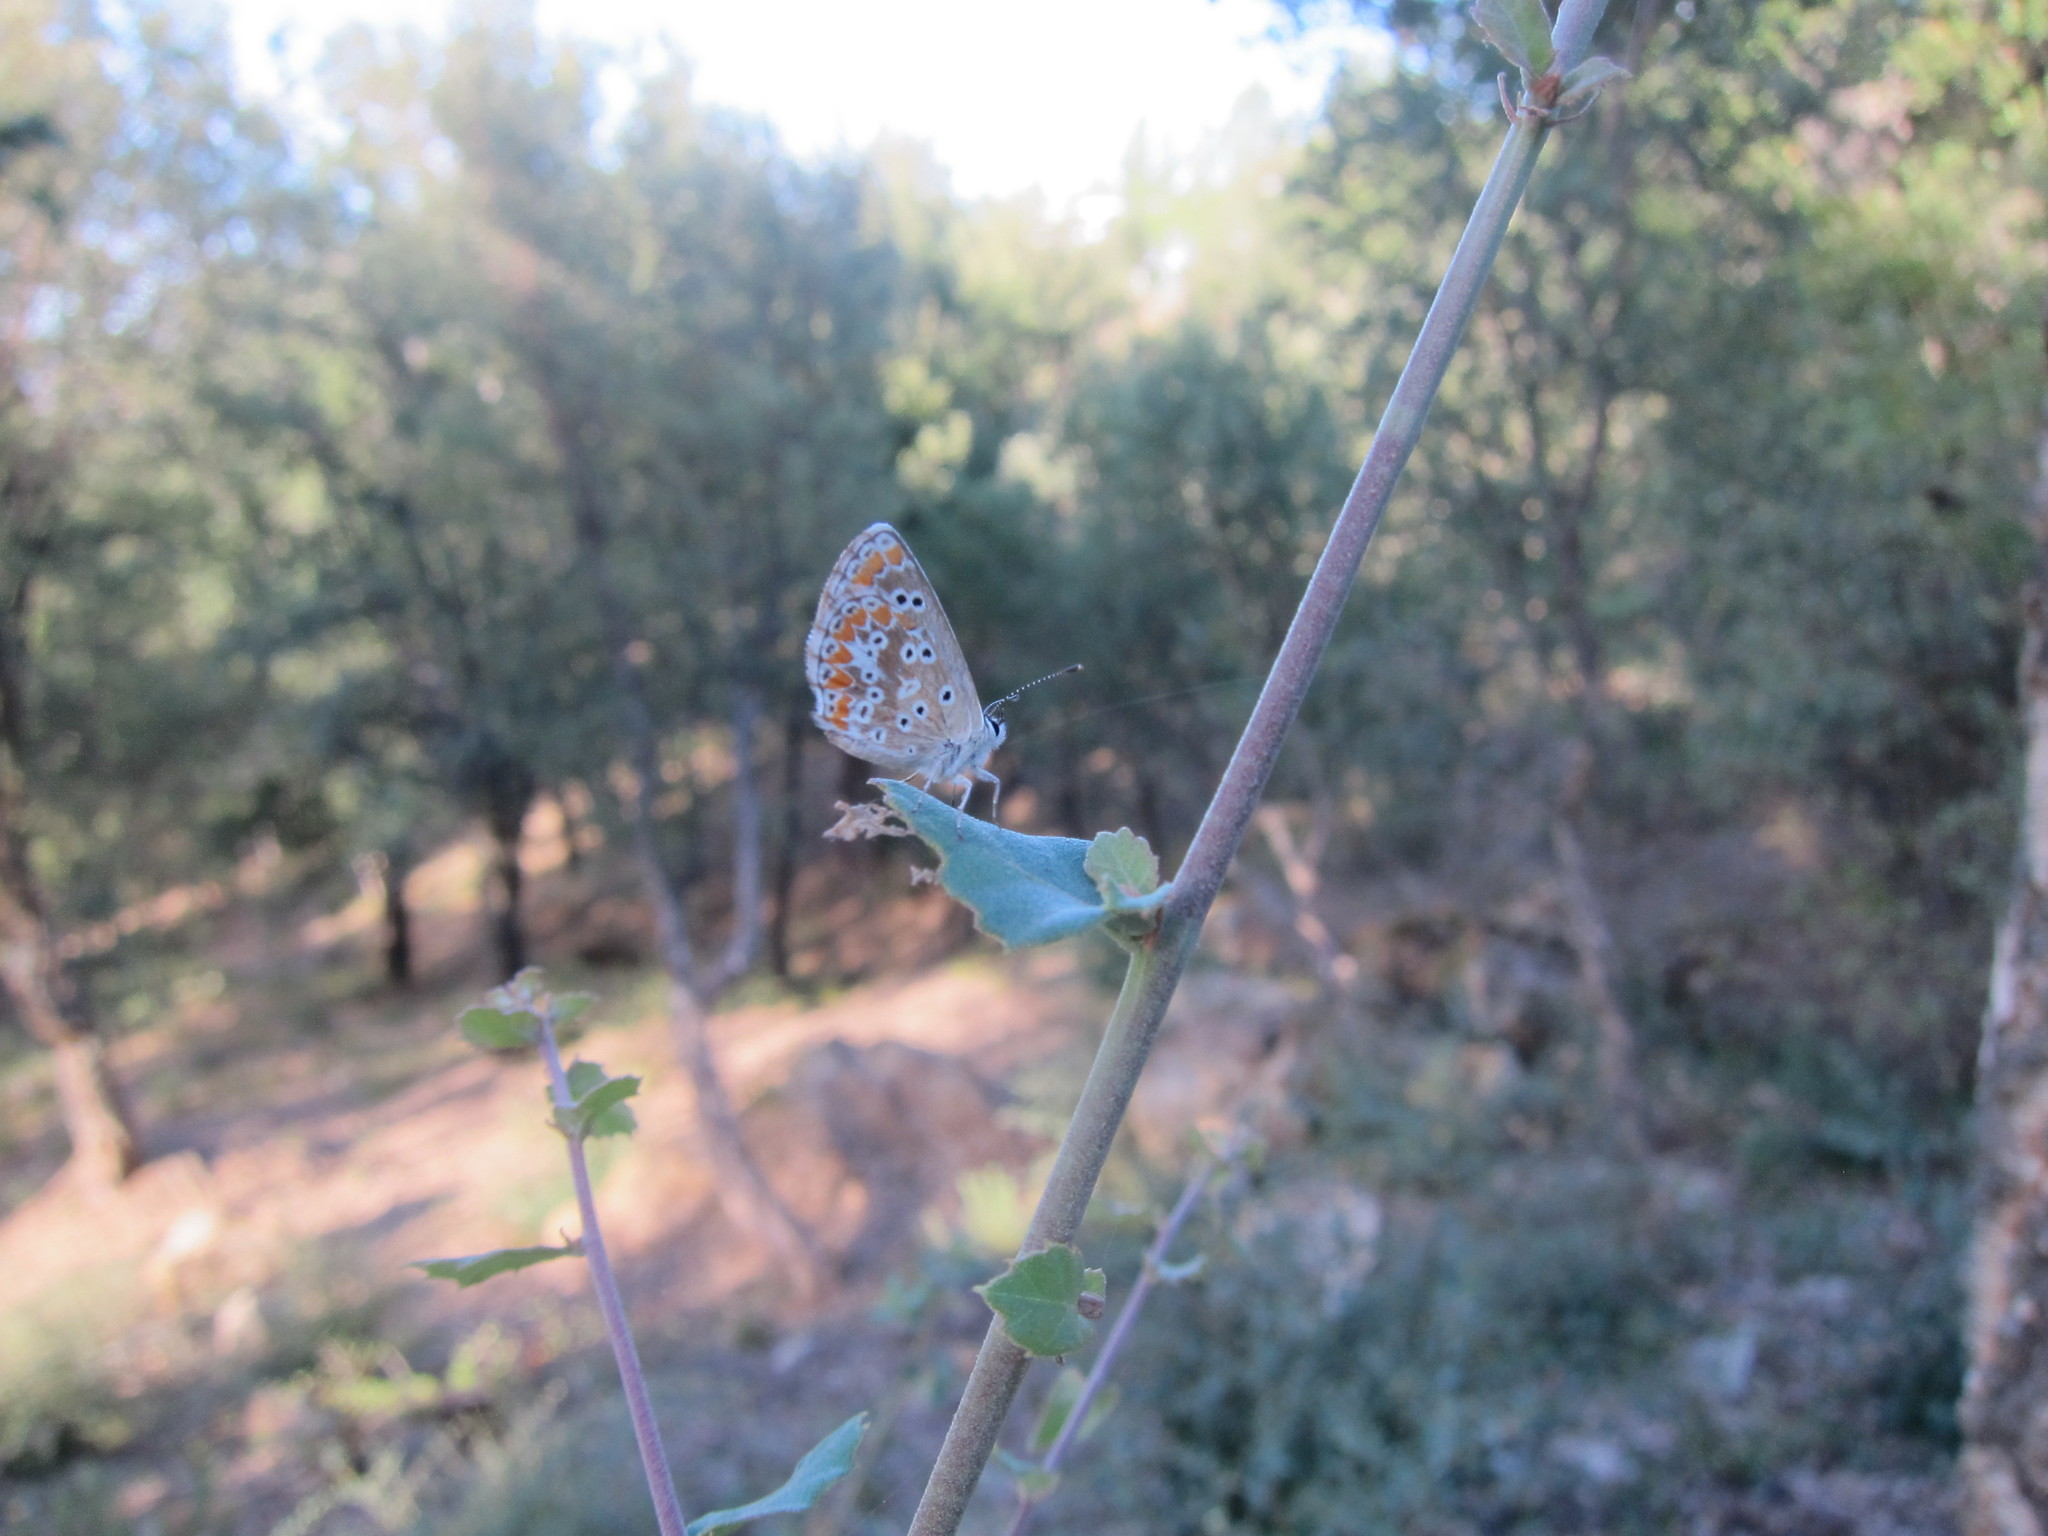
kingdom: Animalia
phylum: Arthropoda
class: Insecta
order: Lepidoptera
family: Lycaenidae
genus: Aricia
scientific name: Aricia cramera
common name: Eschscholtz´s brown  argus
